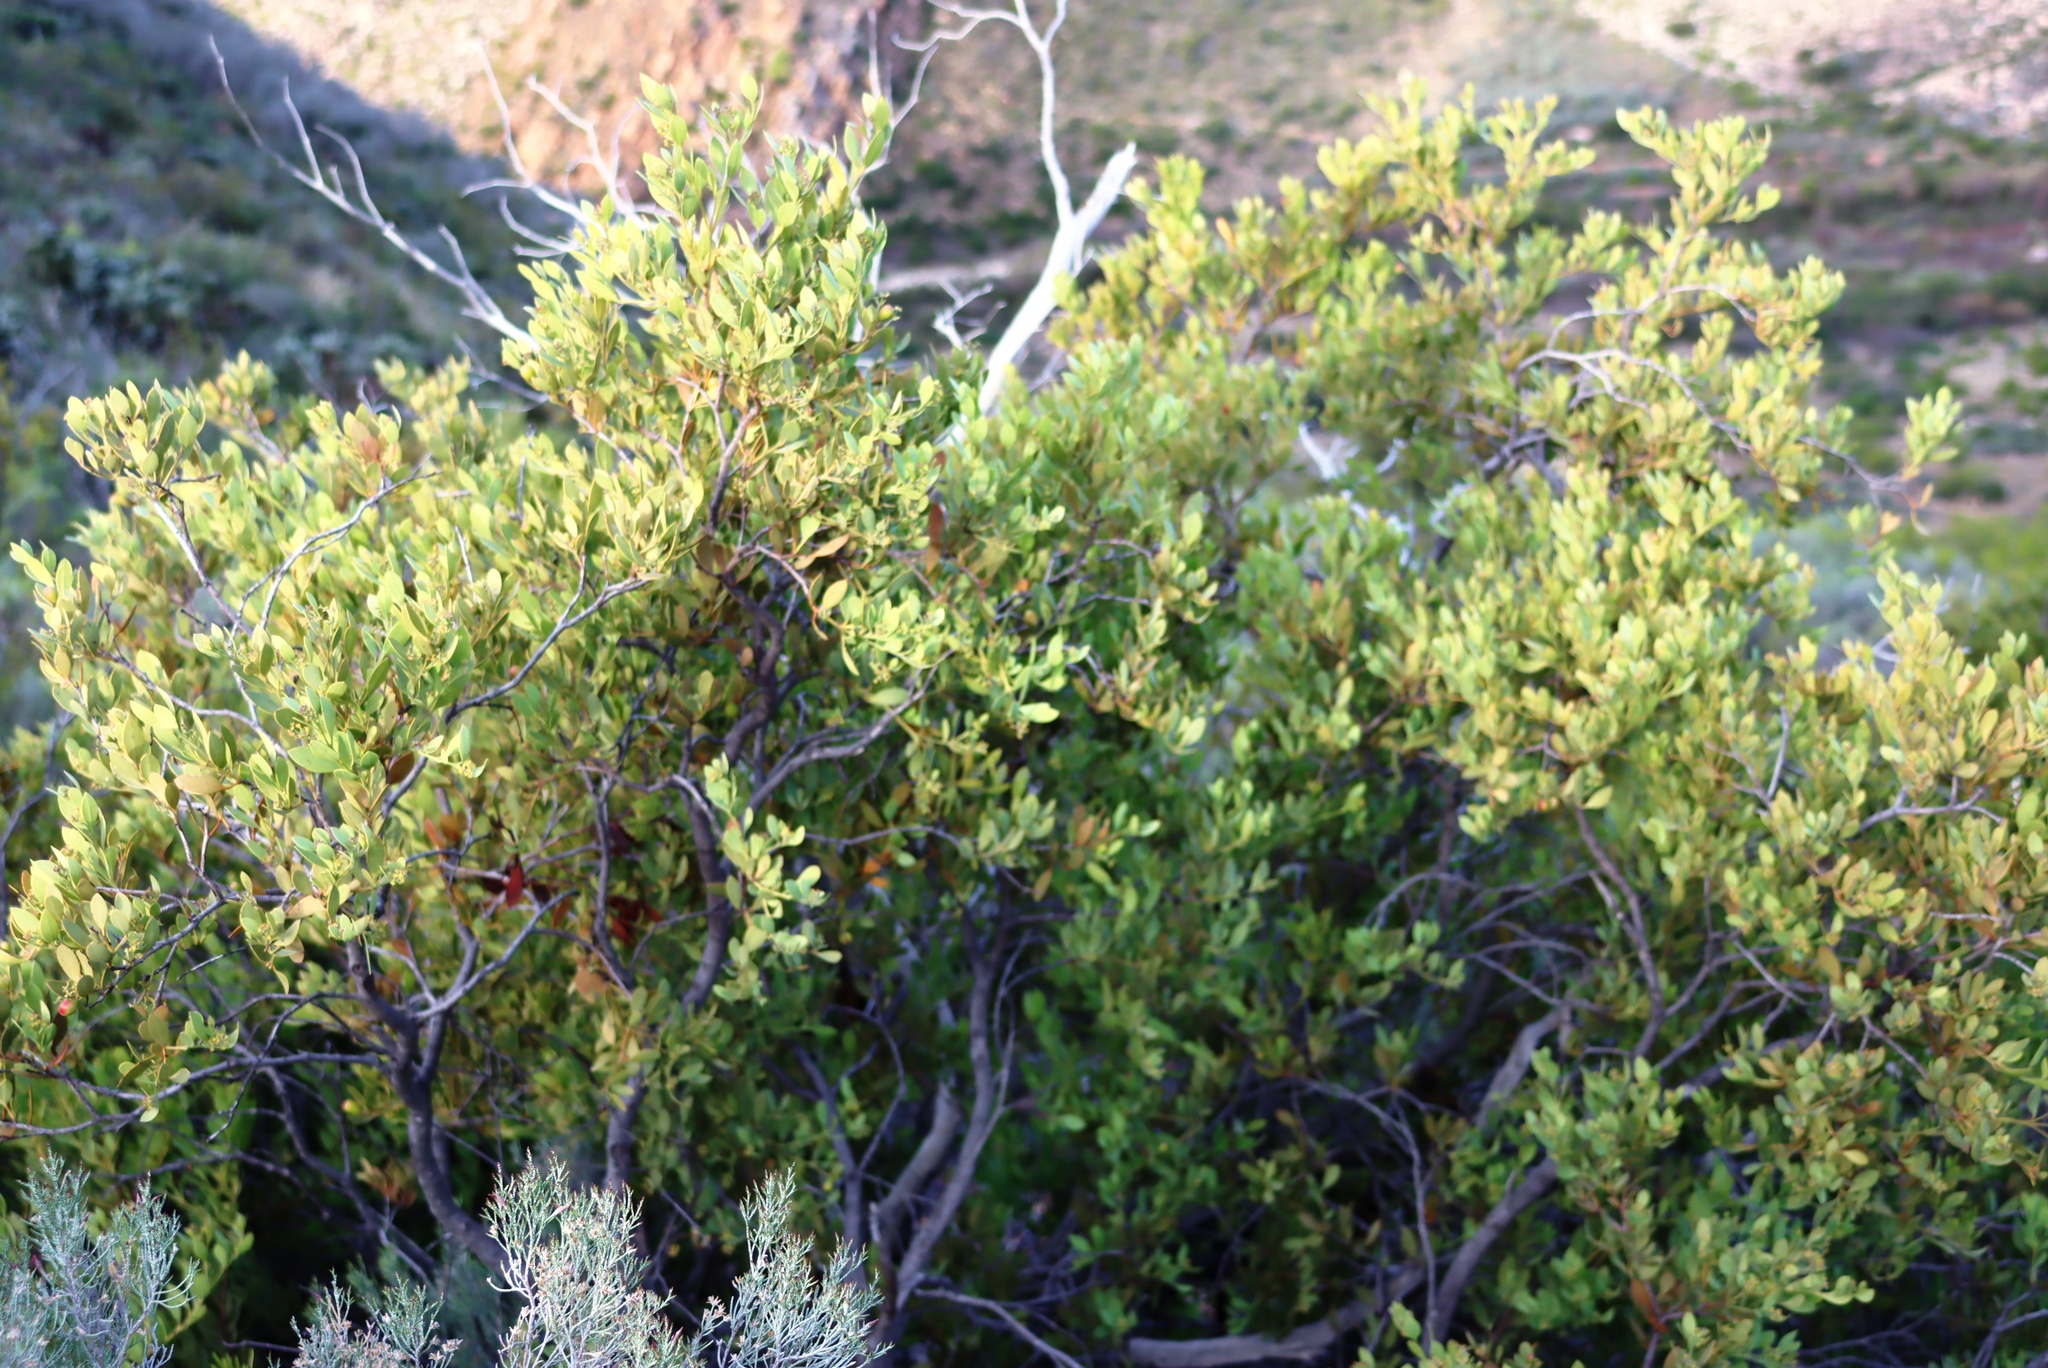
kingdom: Plantae
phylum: Tracheophyta
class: Magnoliopsida
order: Santalales
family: Santalaceae
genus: Osyris
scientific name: Osyris compressa
